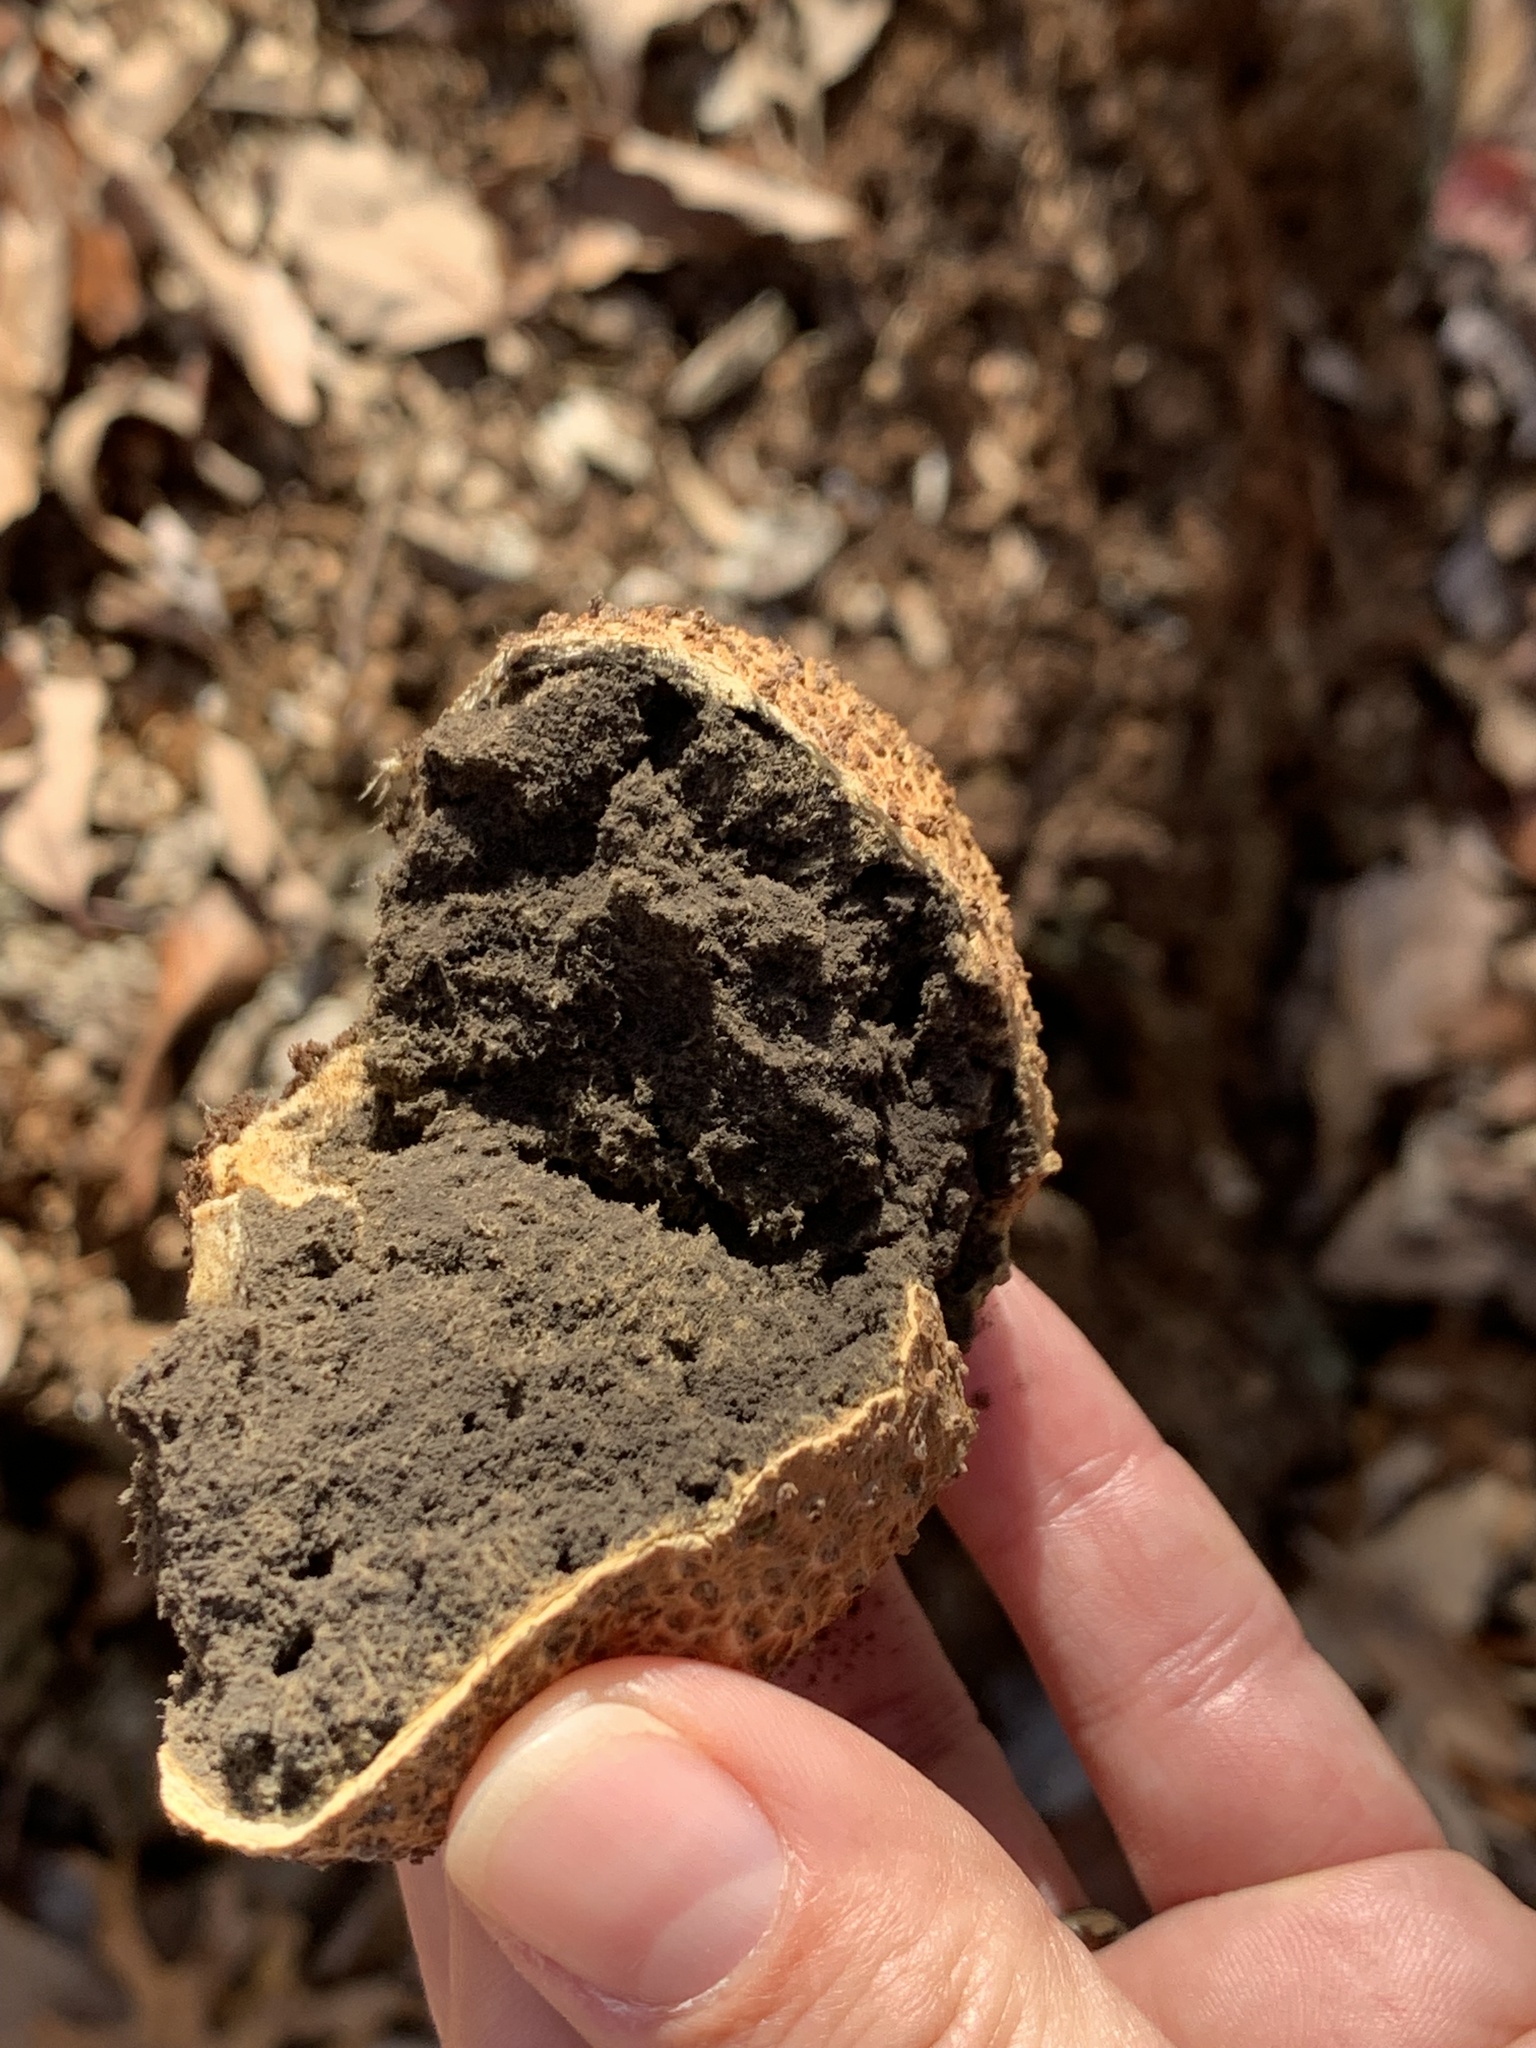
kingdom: Fungi
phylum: Basidiomycota
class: Agaricomycetes
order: Boletales
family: Sclerodermataceae
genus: Scleroderma
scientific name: Scleroderma citrinum
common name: Common earthball
